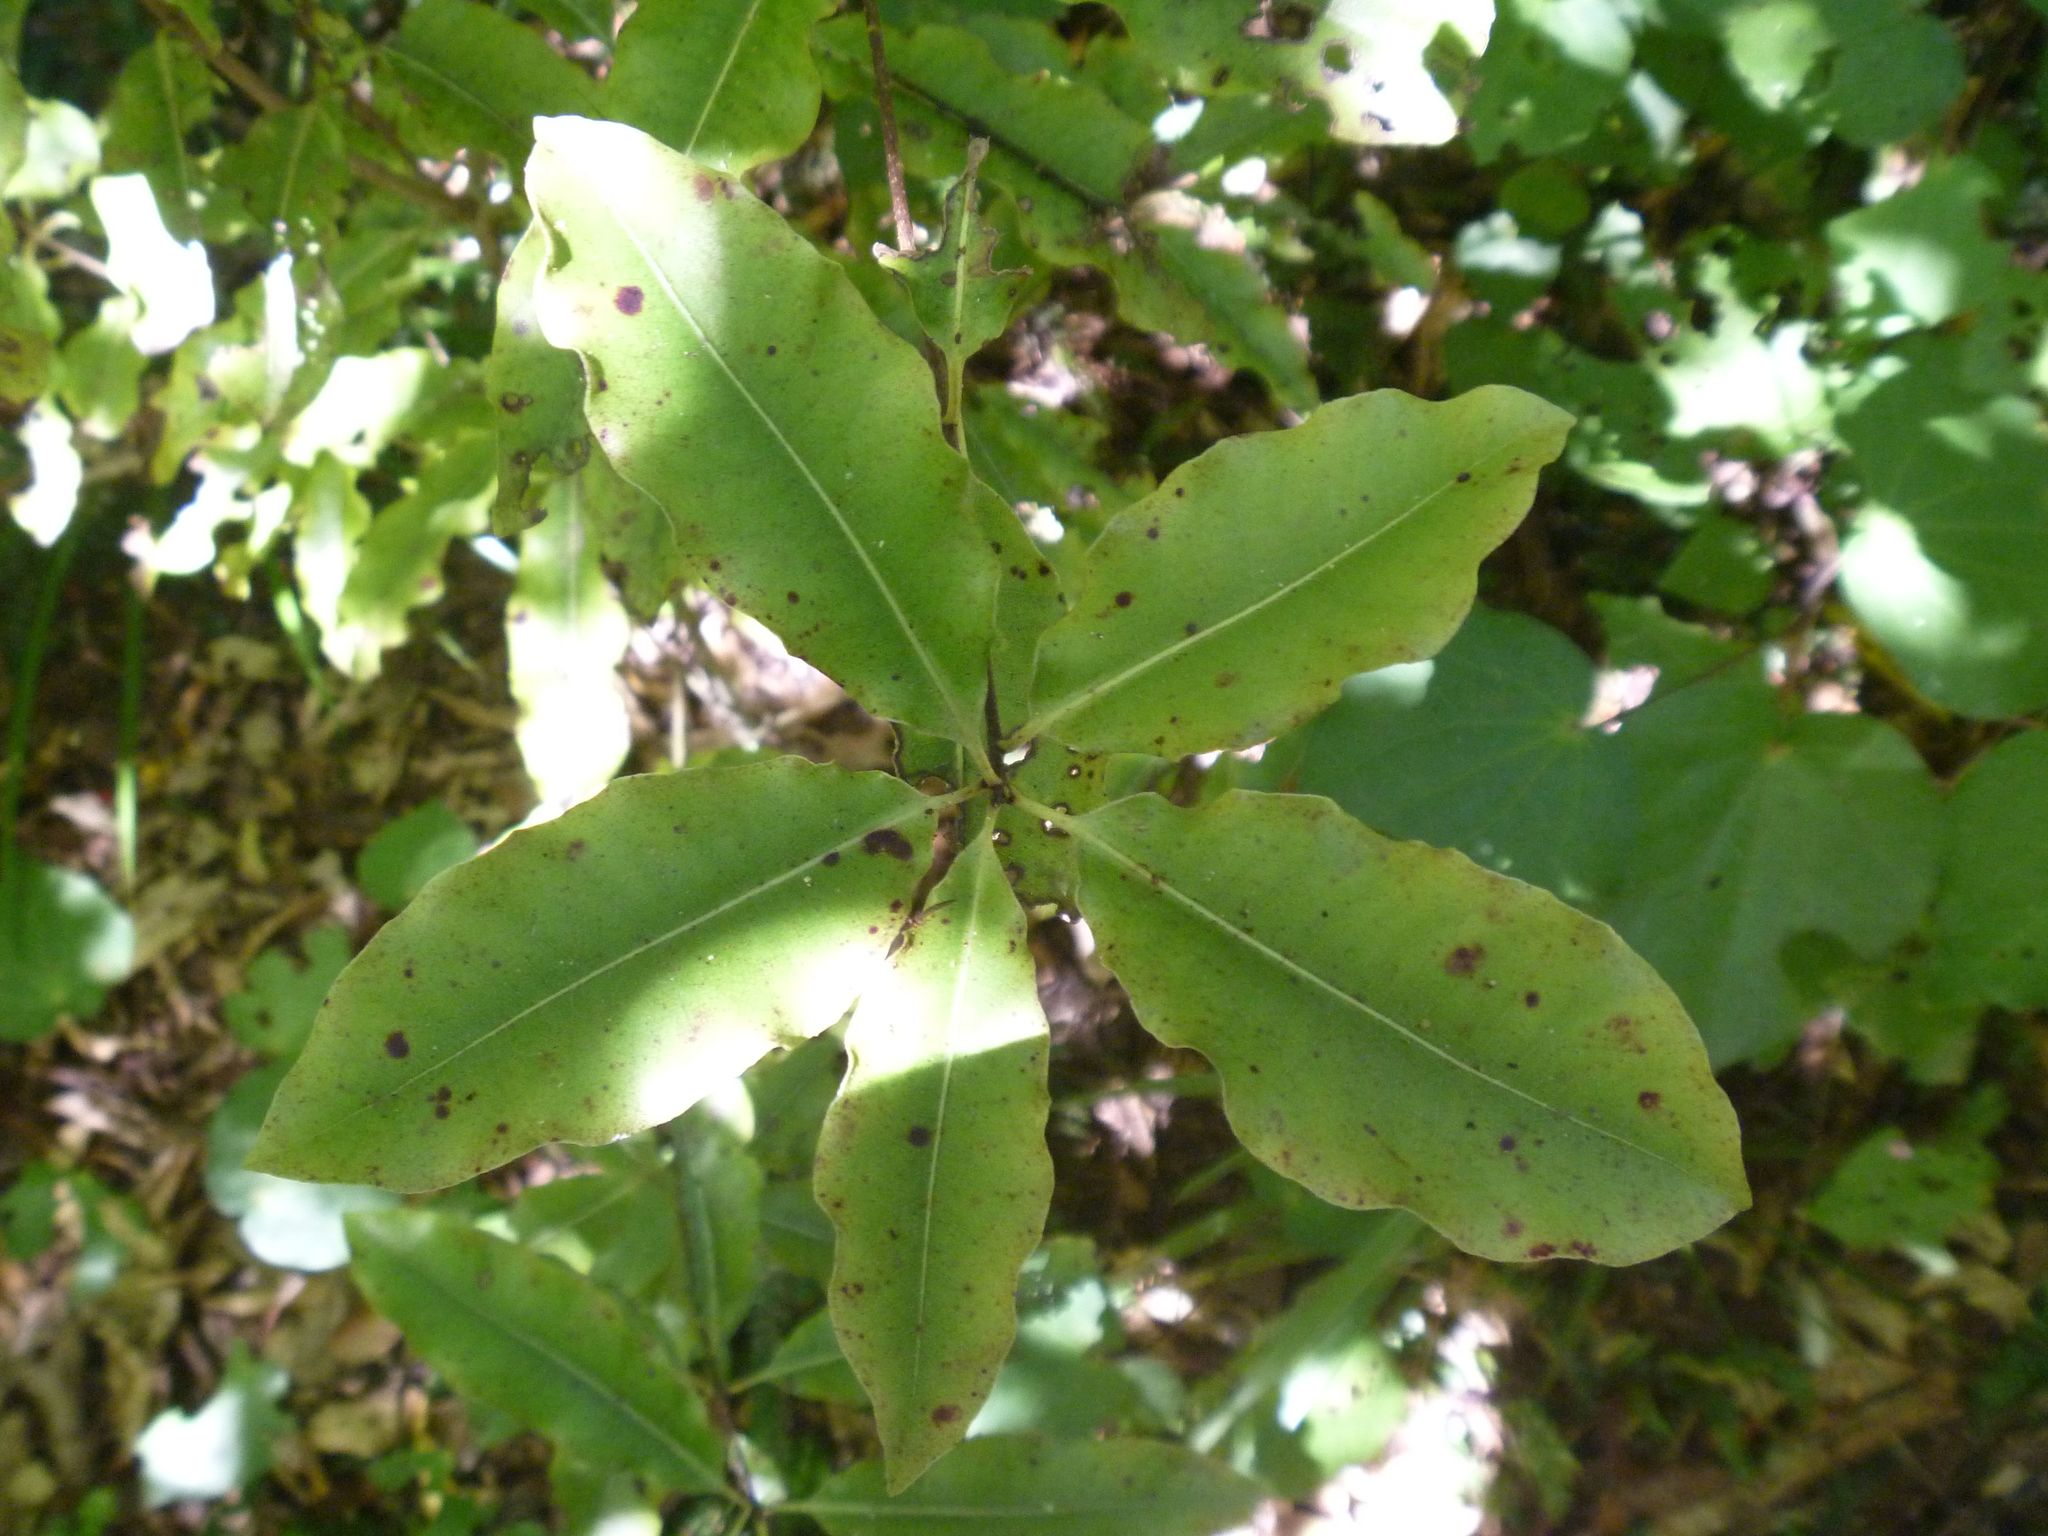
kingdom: Plantae
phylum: Tracheophyta
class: Magnoliopsida
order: Apiales
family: Pittosporaceae
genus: Pittosporum
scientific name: Pittosporum eugenioides
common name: Lemonwood
